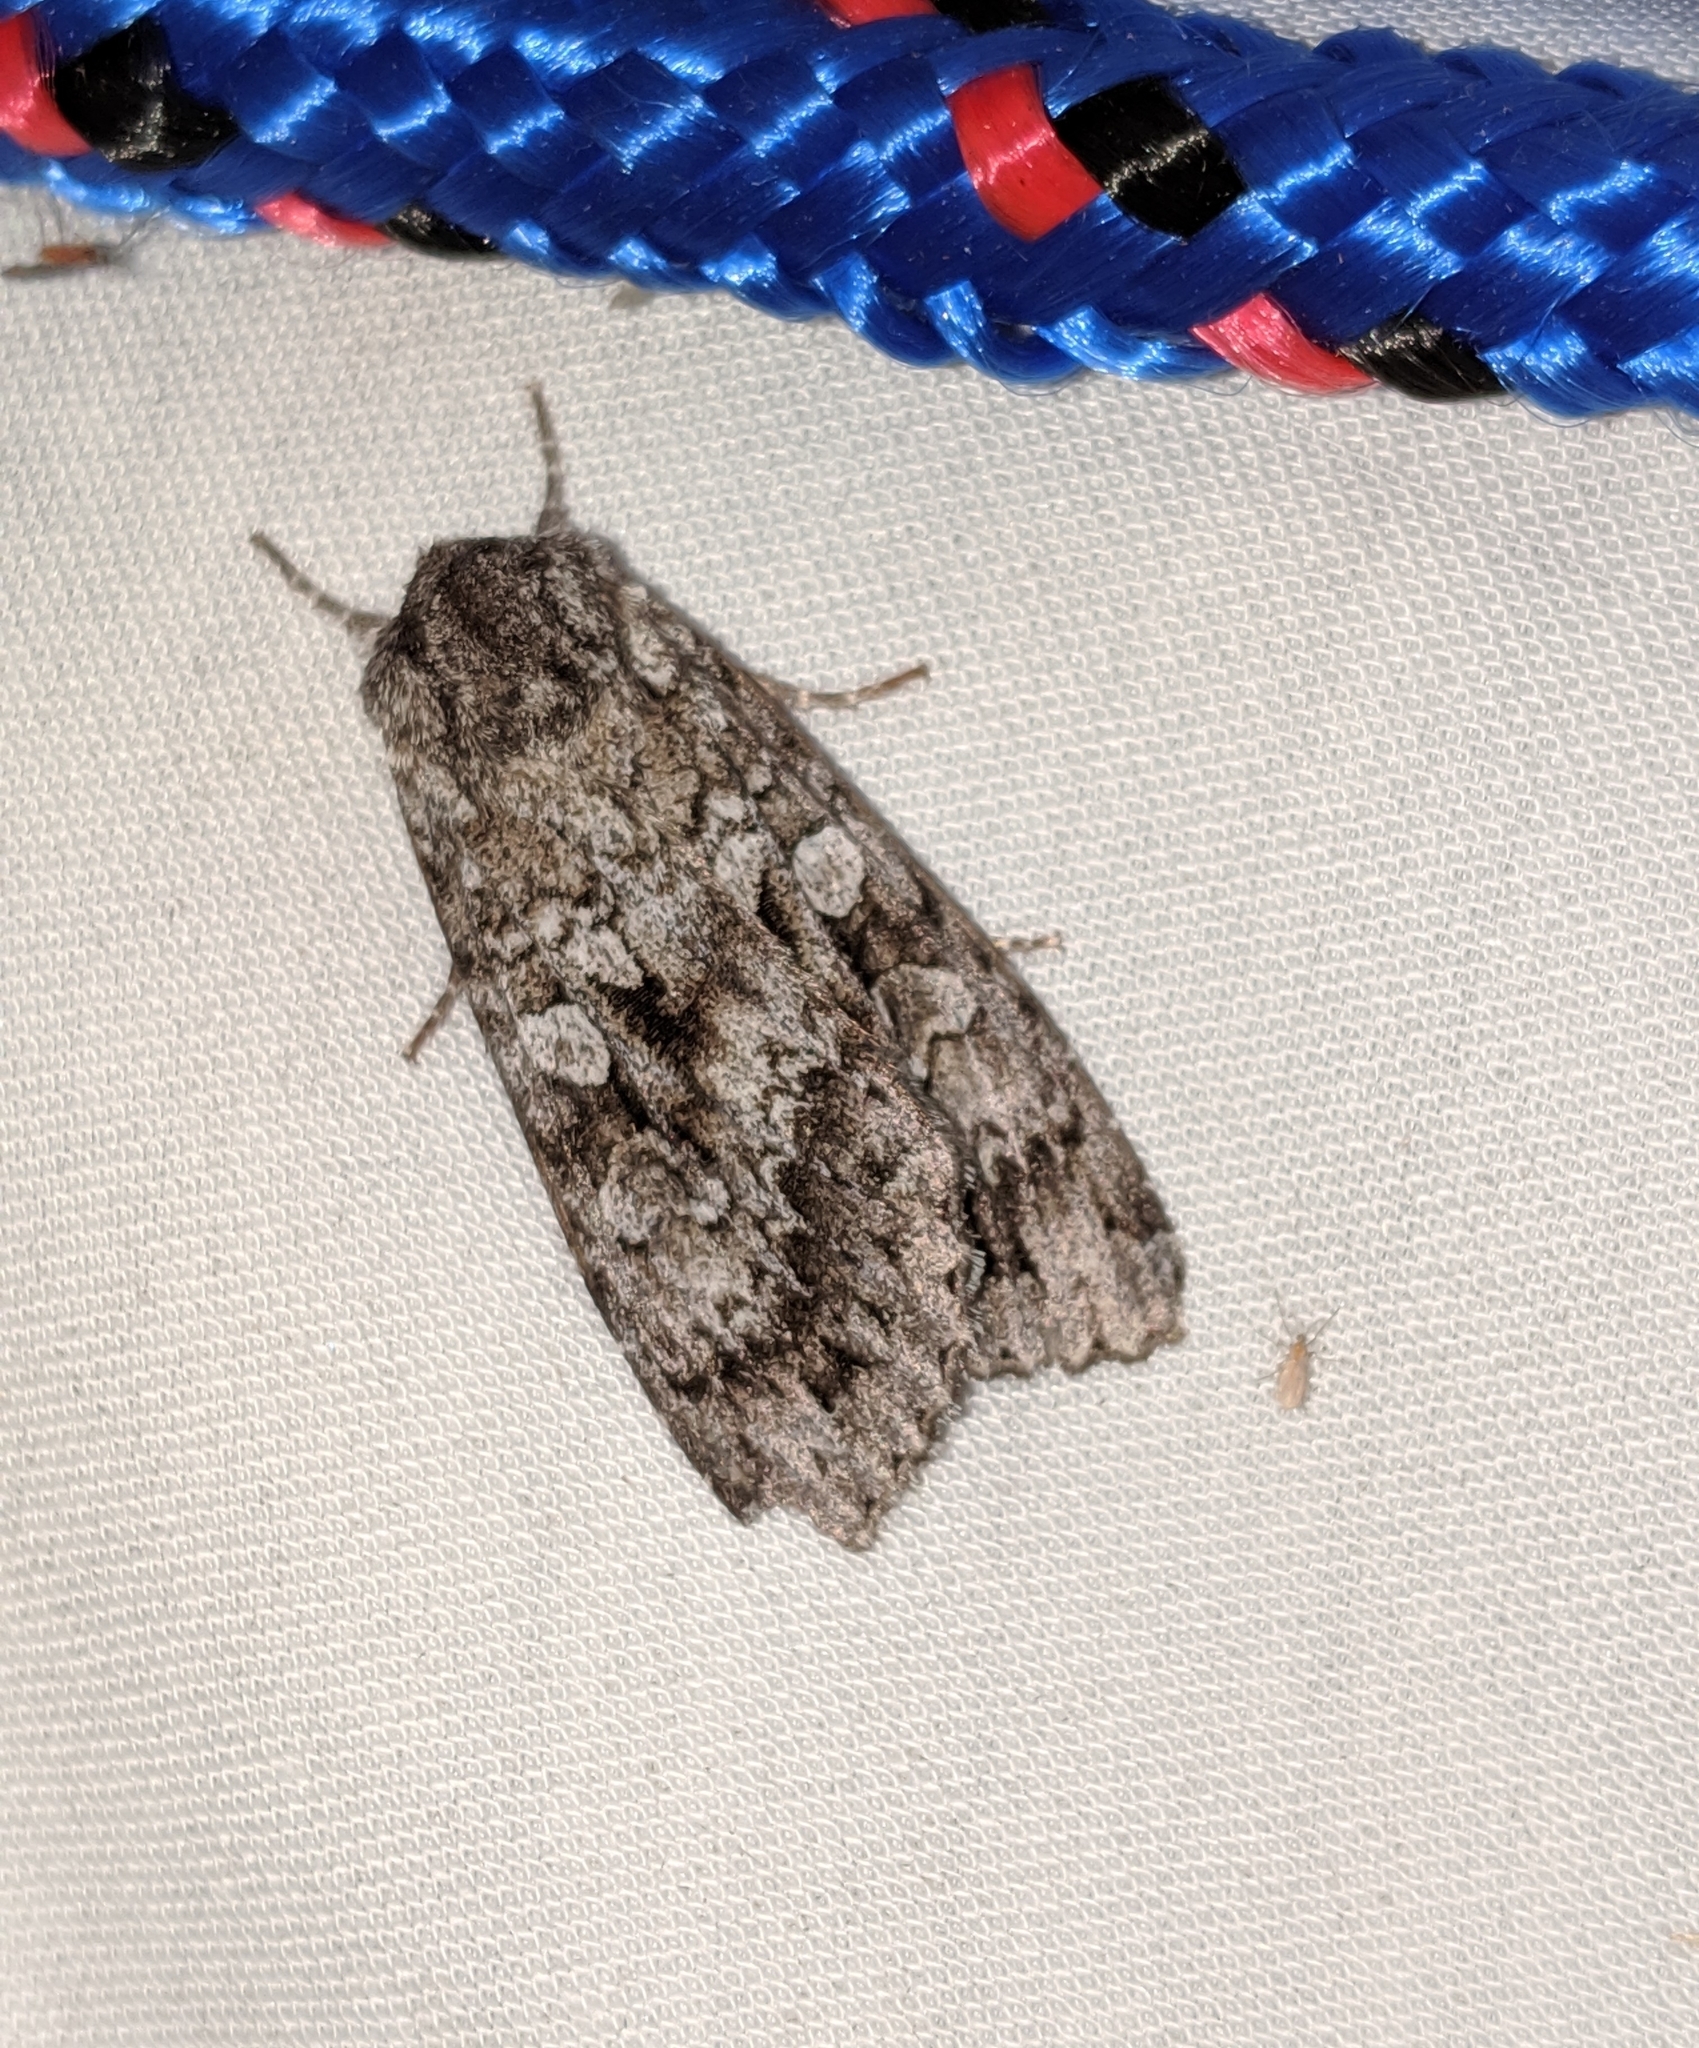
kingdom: Animalia
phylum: Arthropoda
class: Insecta
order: Lepidoptera
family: Noctuidae
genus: Eurois
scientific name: Eurois occulta
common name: Great brocade
